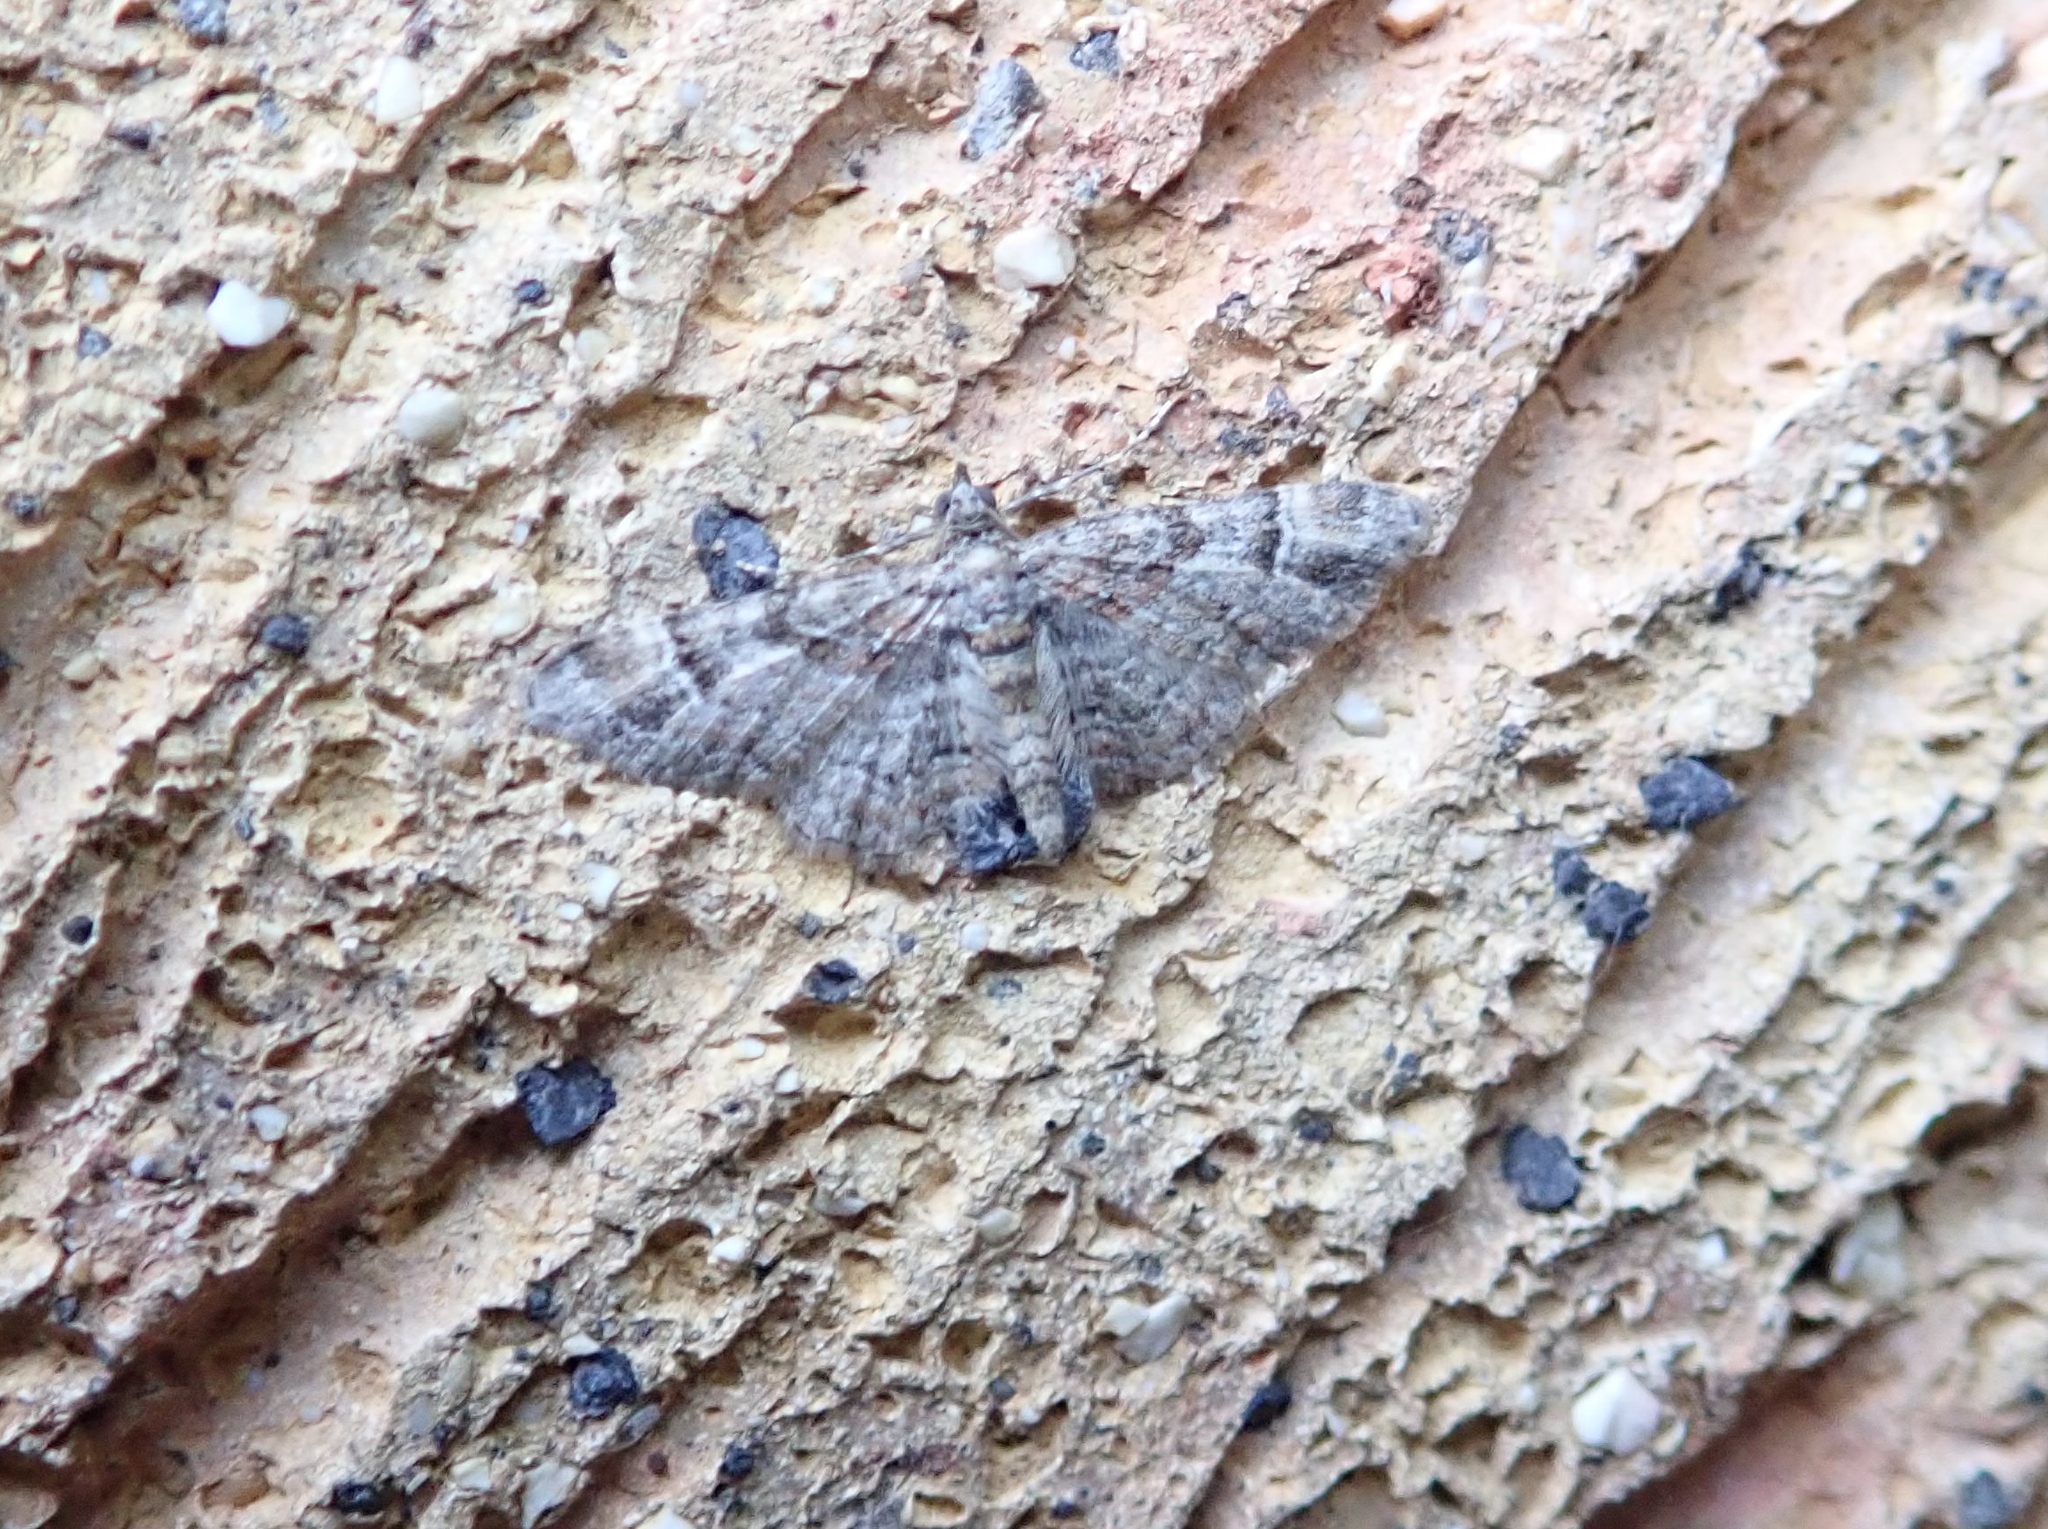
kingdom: Animalia
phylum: Arthropoda
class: Insecta
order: Lepidoptera
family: Geometridae
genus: Gymnoscelis
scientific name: Gymnoscelis rufifasciata
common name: Double-striped pug
